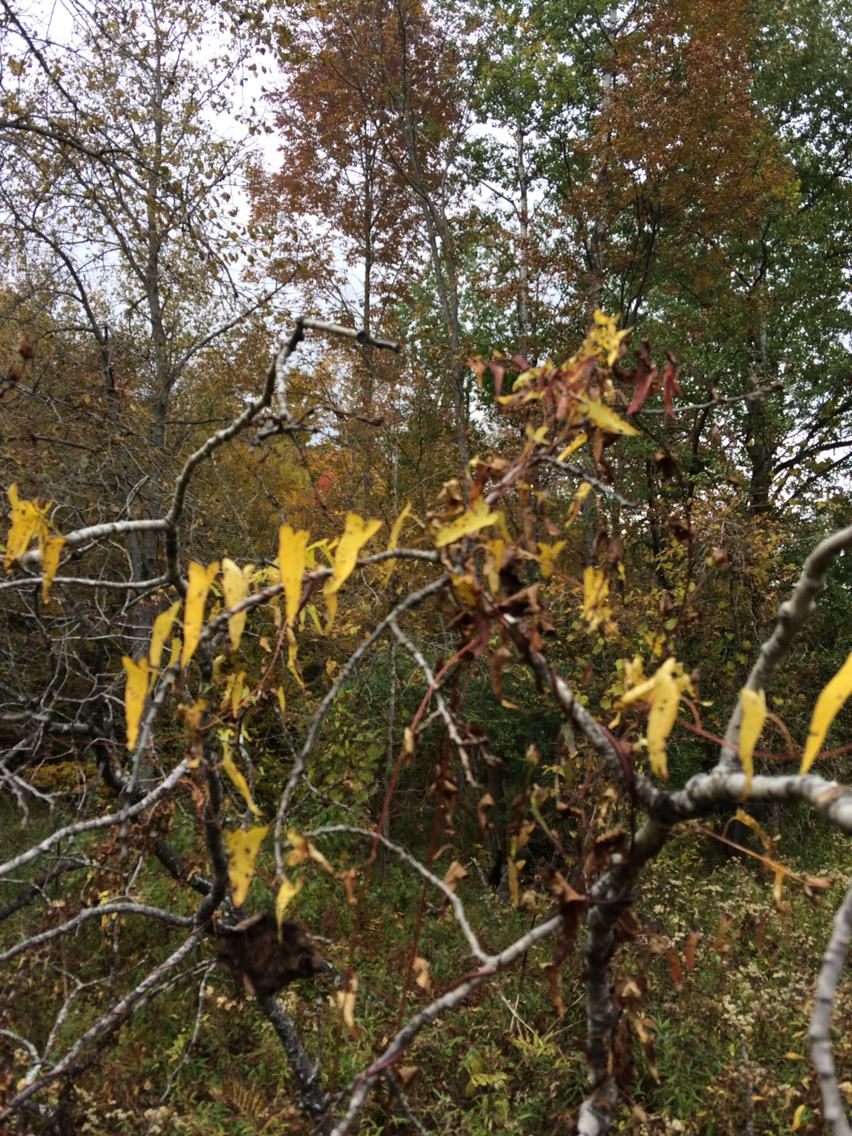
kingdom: Plantae
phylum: Tracheophyta
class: Magnoliopsida
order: Solanales
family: Convolvulaceae
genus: Calystegia
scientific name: Calystegia sepium
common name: Hedge bindweed
